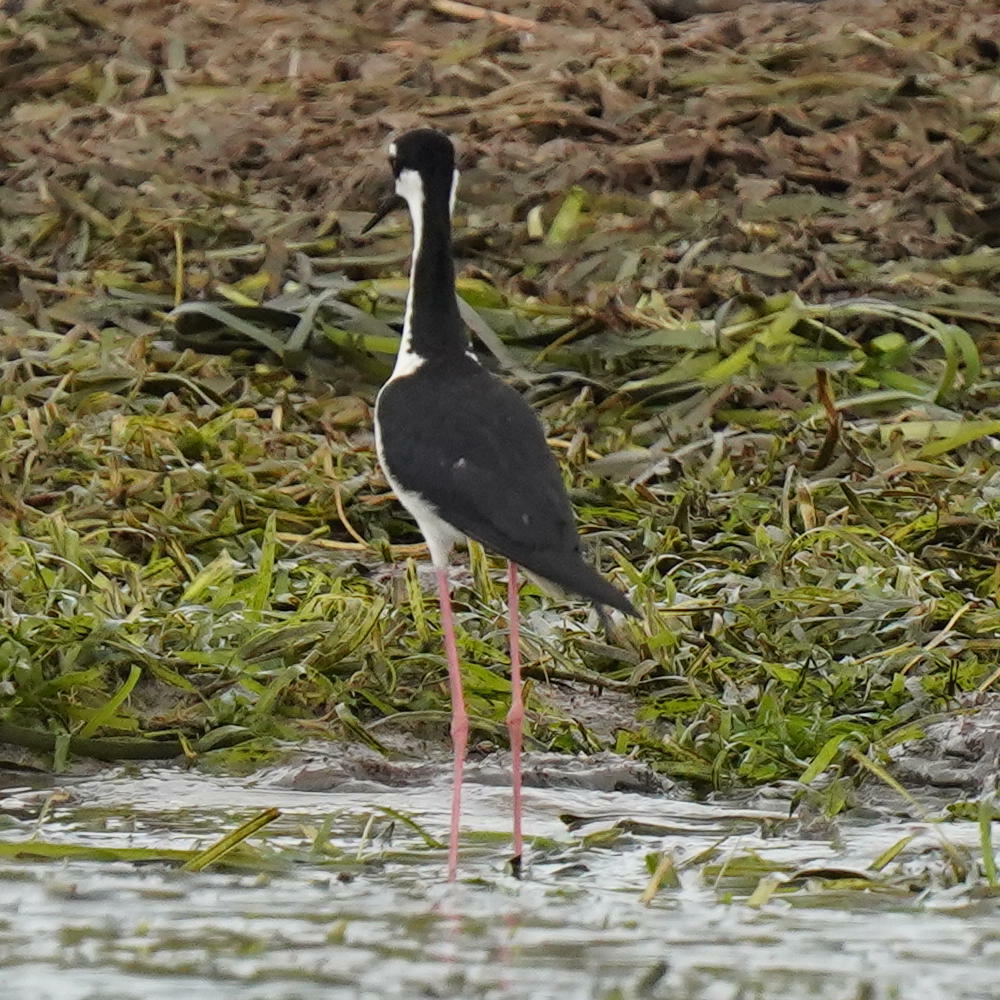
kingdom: Animalia
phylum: Chordata
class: Aves
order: Charadriiformes
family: Recurvirostridae
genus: Himantopus
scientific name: Himantopus mexicanus
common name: Black-necked stilt
